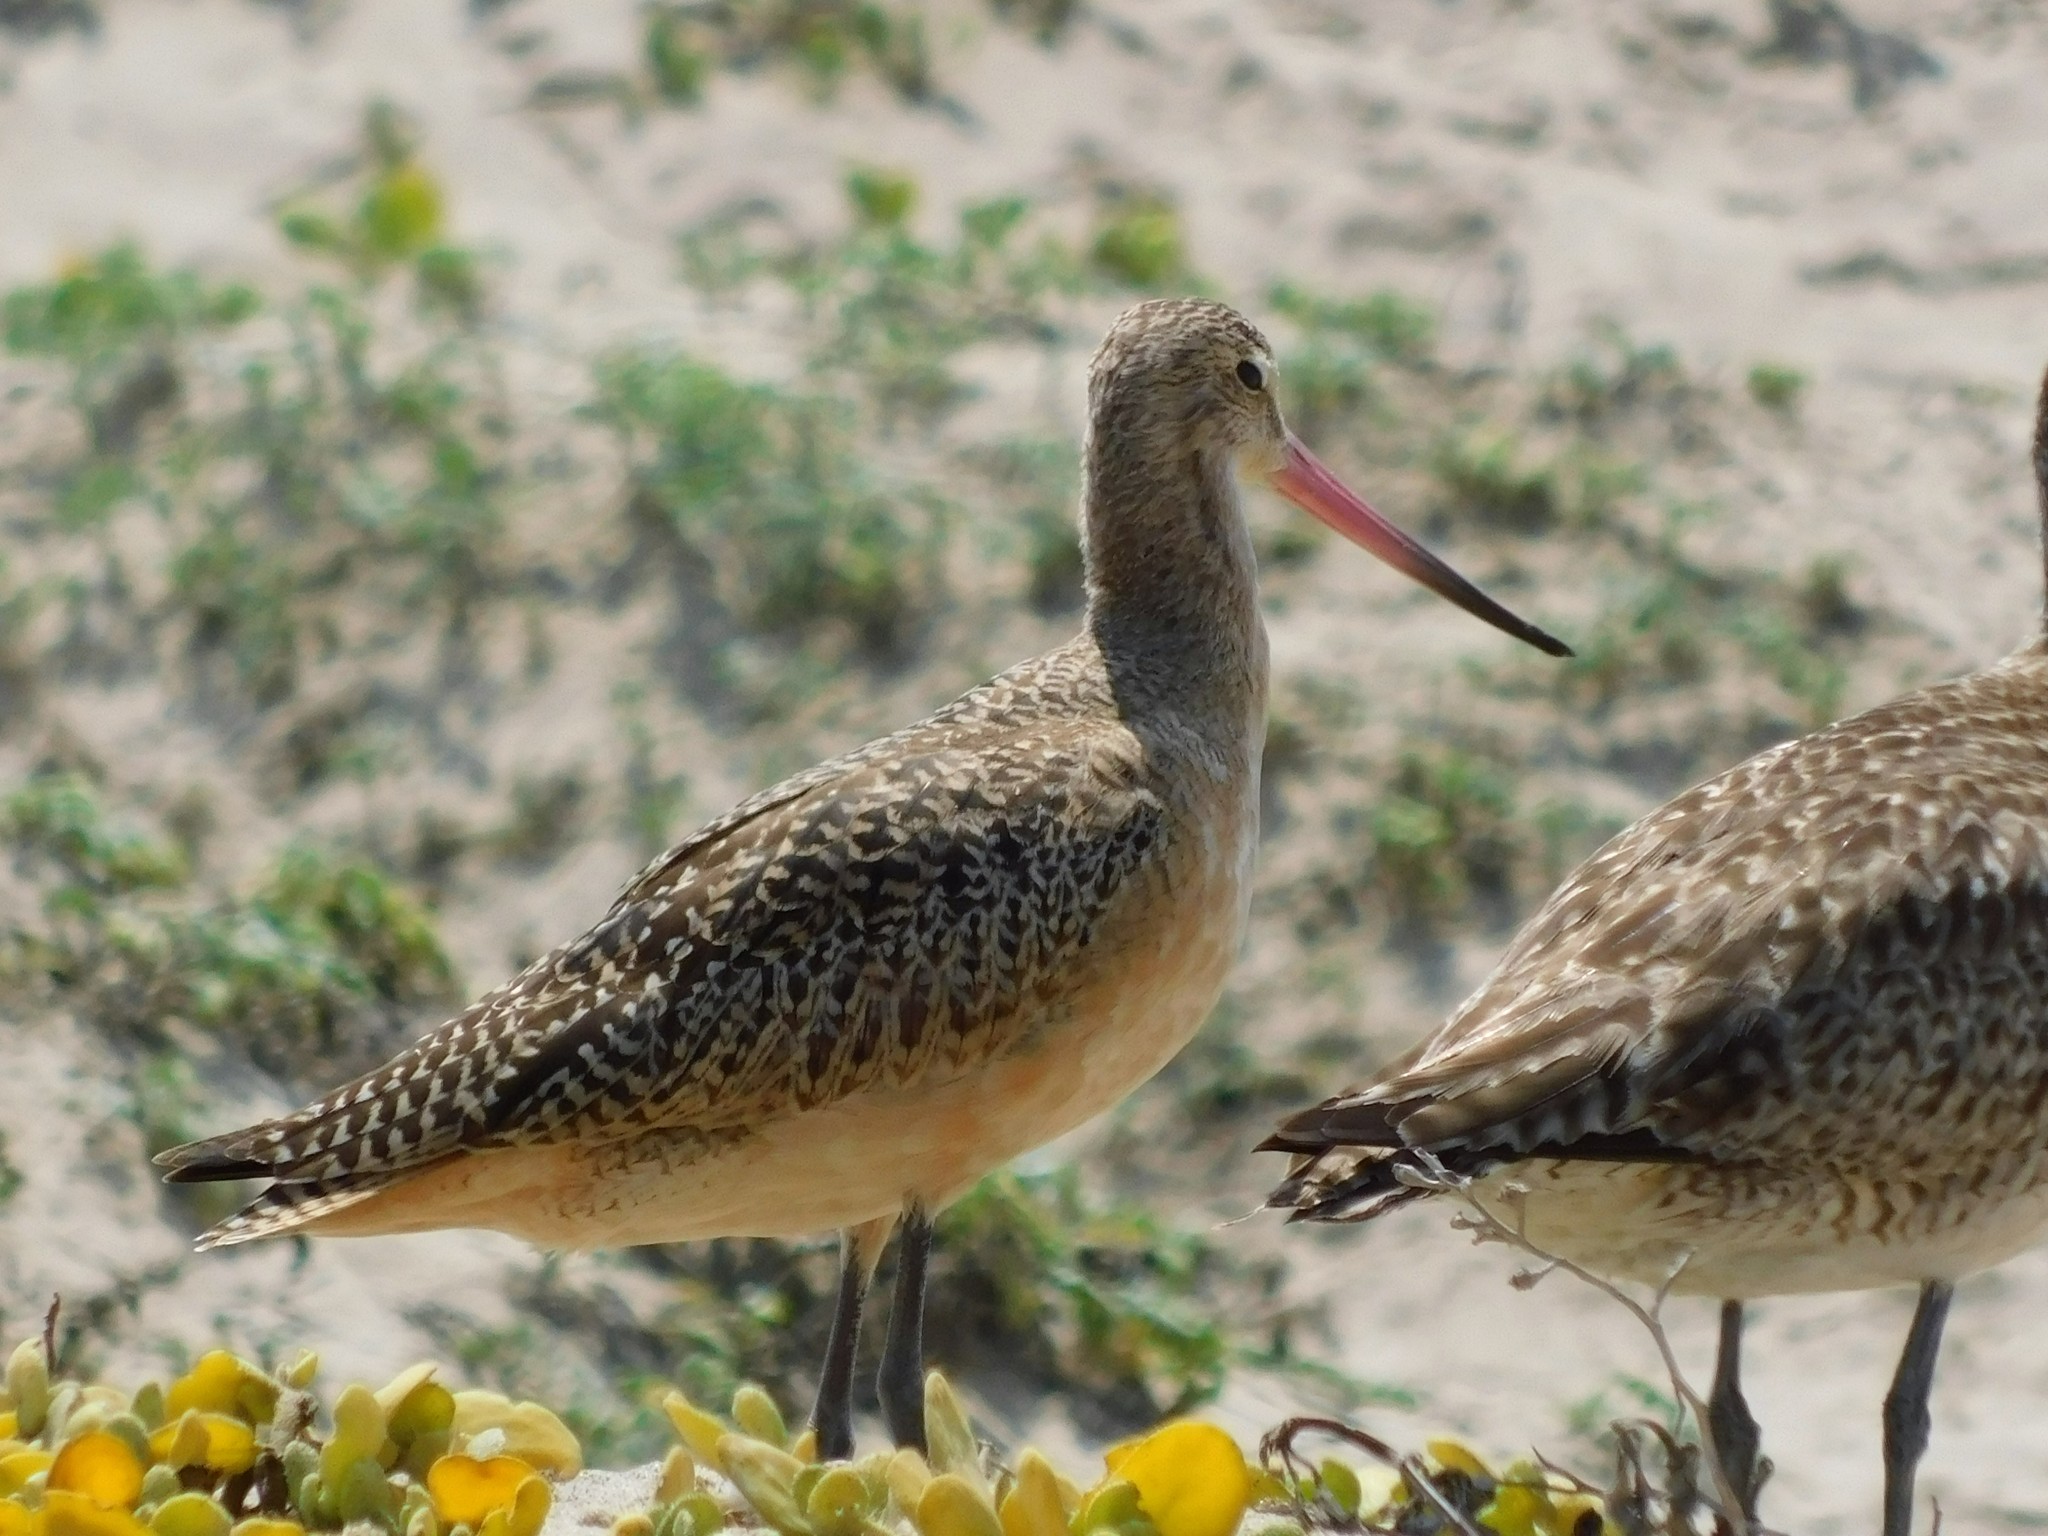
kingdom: Animalia
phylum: Chordata
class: Aves
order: Charadriiformes
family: Scolopacidae
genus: Limosa
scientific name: Limosa fedoa
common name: Marbled godwit
